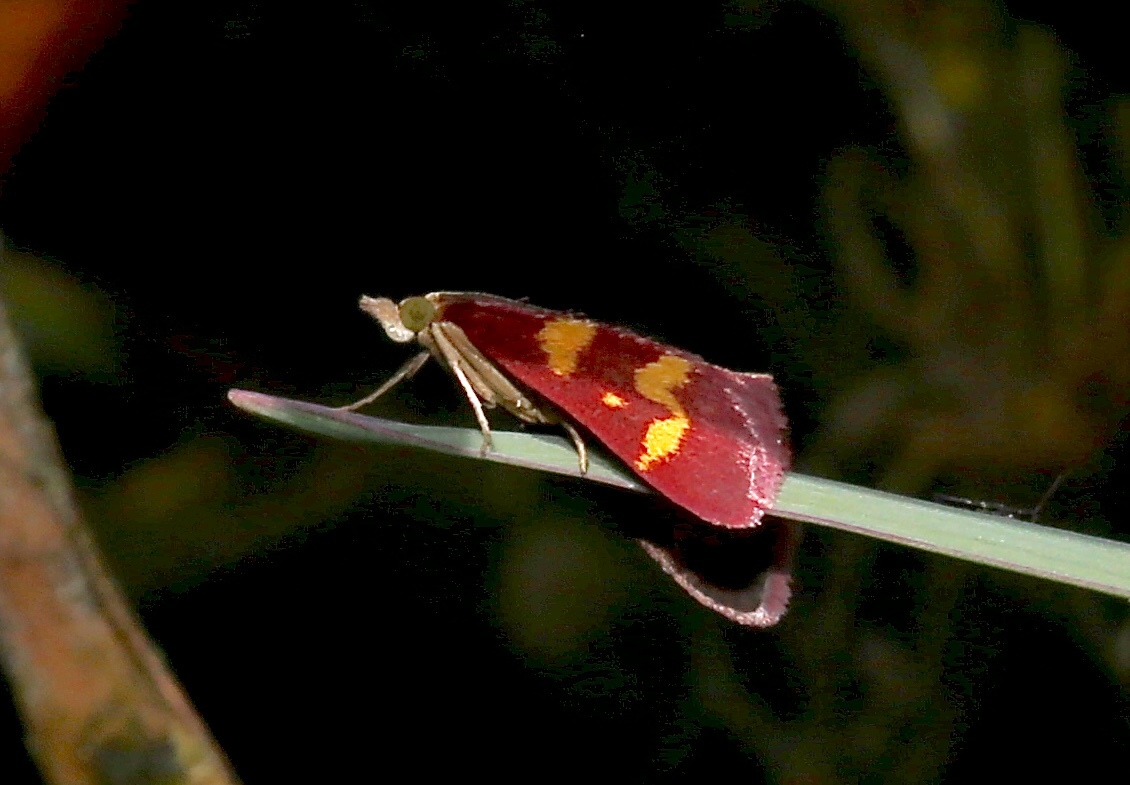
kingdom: Animalia
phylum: Arthropoda
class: Insecta
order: Lepidoptera
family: Crambidae
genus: Pyrausta
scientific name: Pyrausta tyralis
